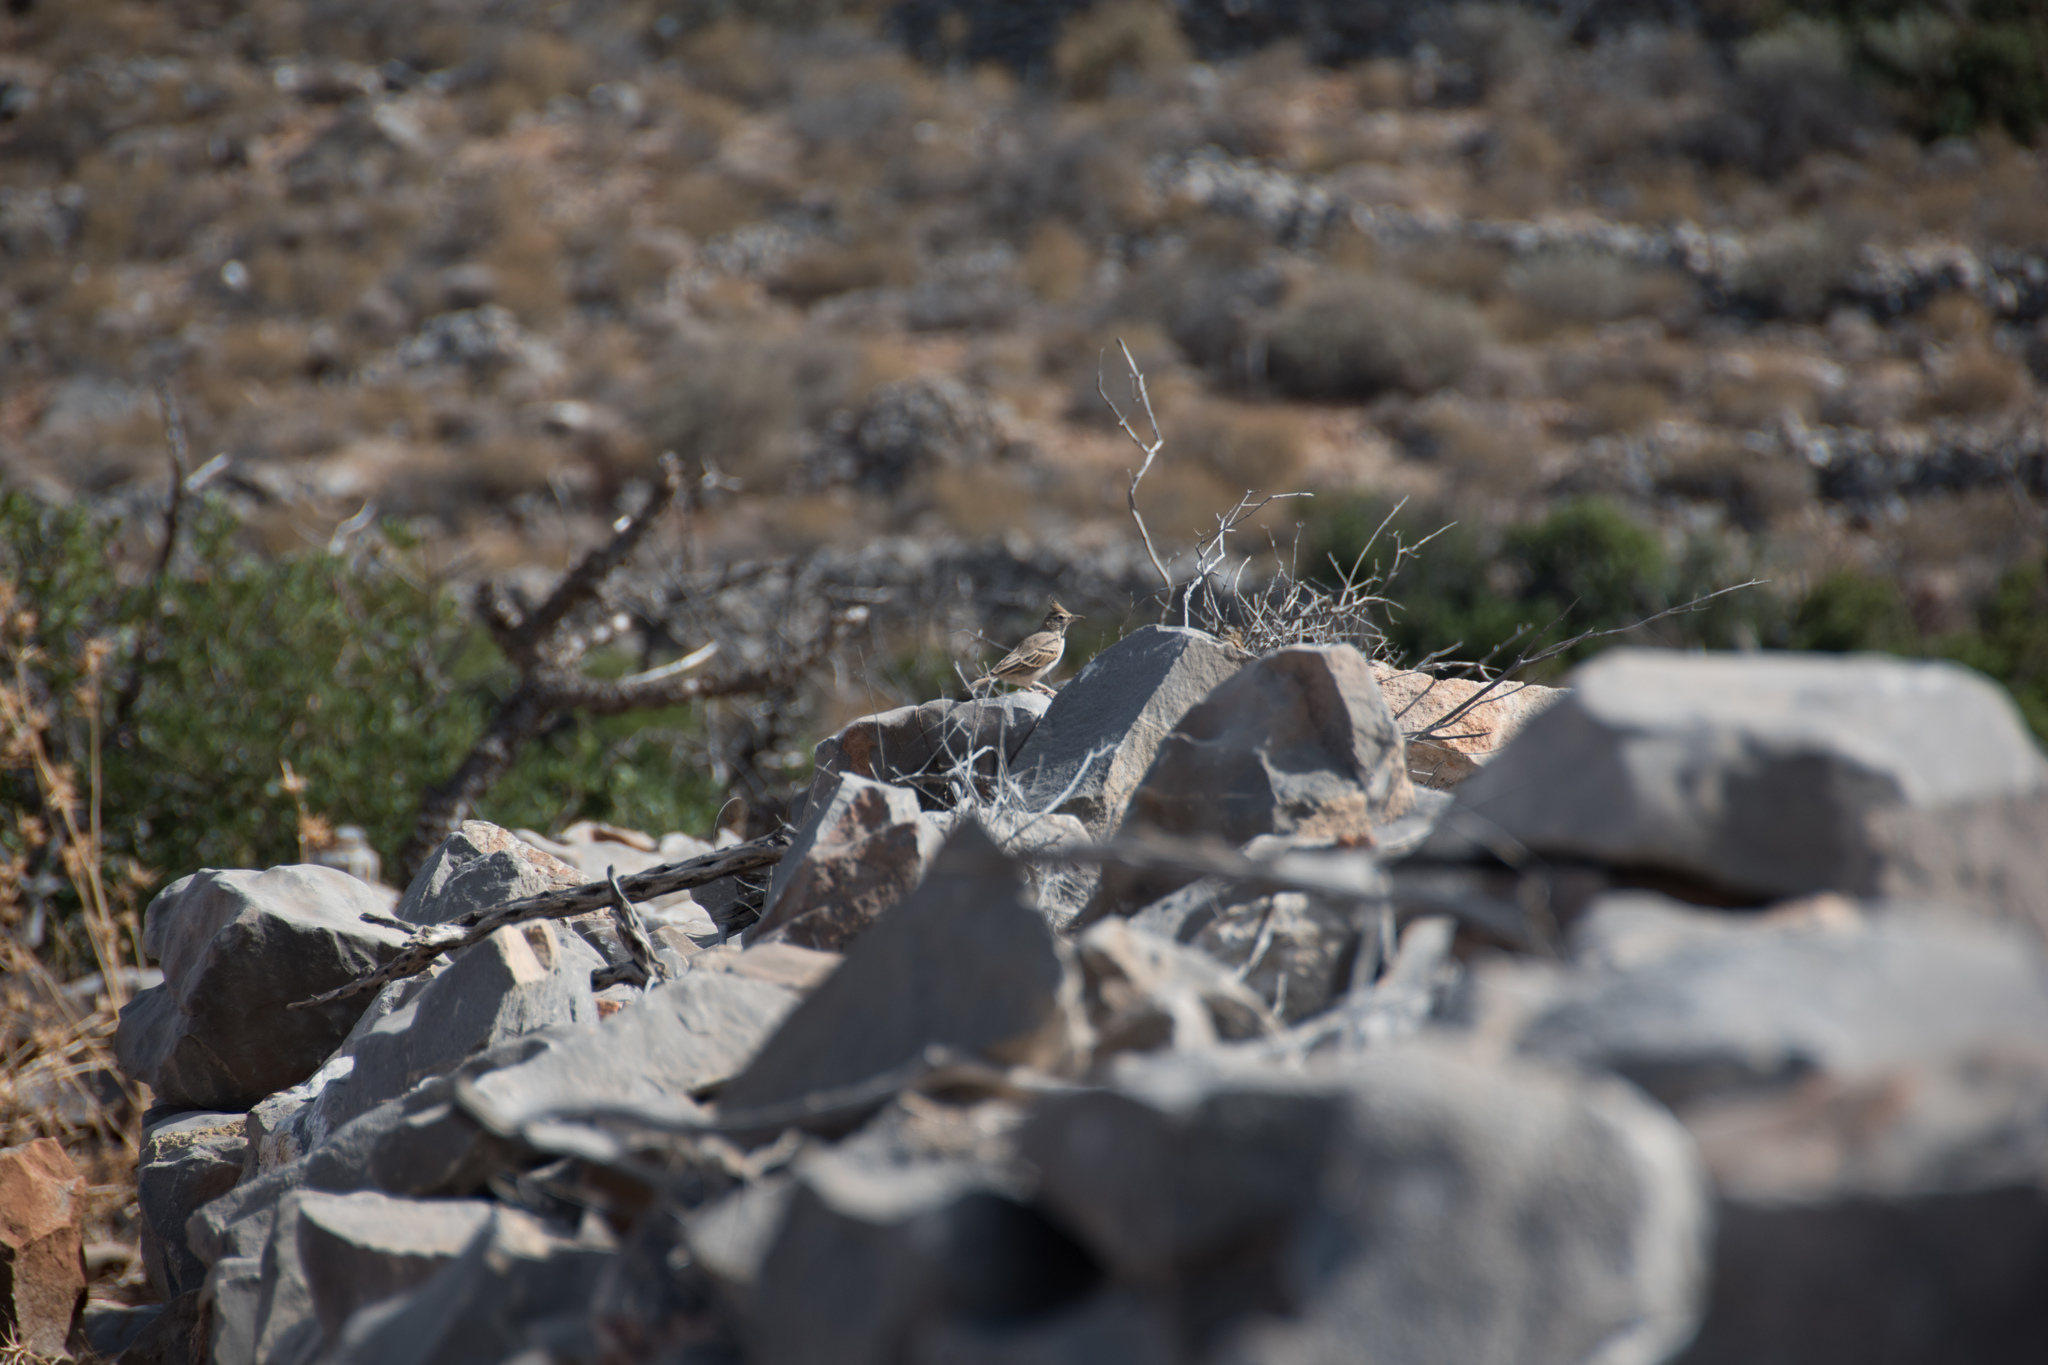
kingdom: Animalia
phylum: Chordata
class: Aves
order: Passeriformes
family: Alaudidae
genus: Galerida
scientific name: Galerida cristata
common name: Crested lark
